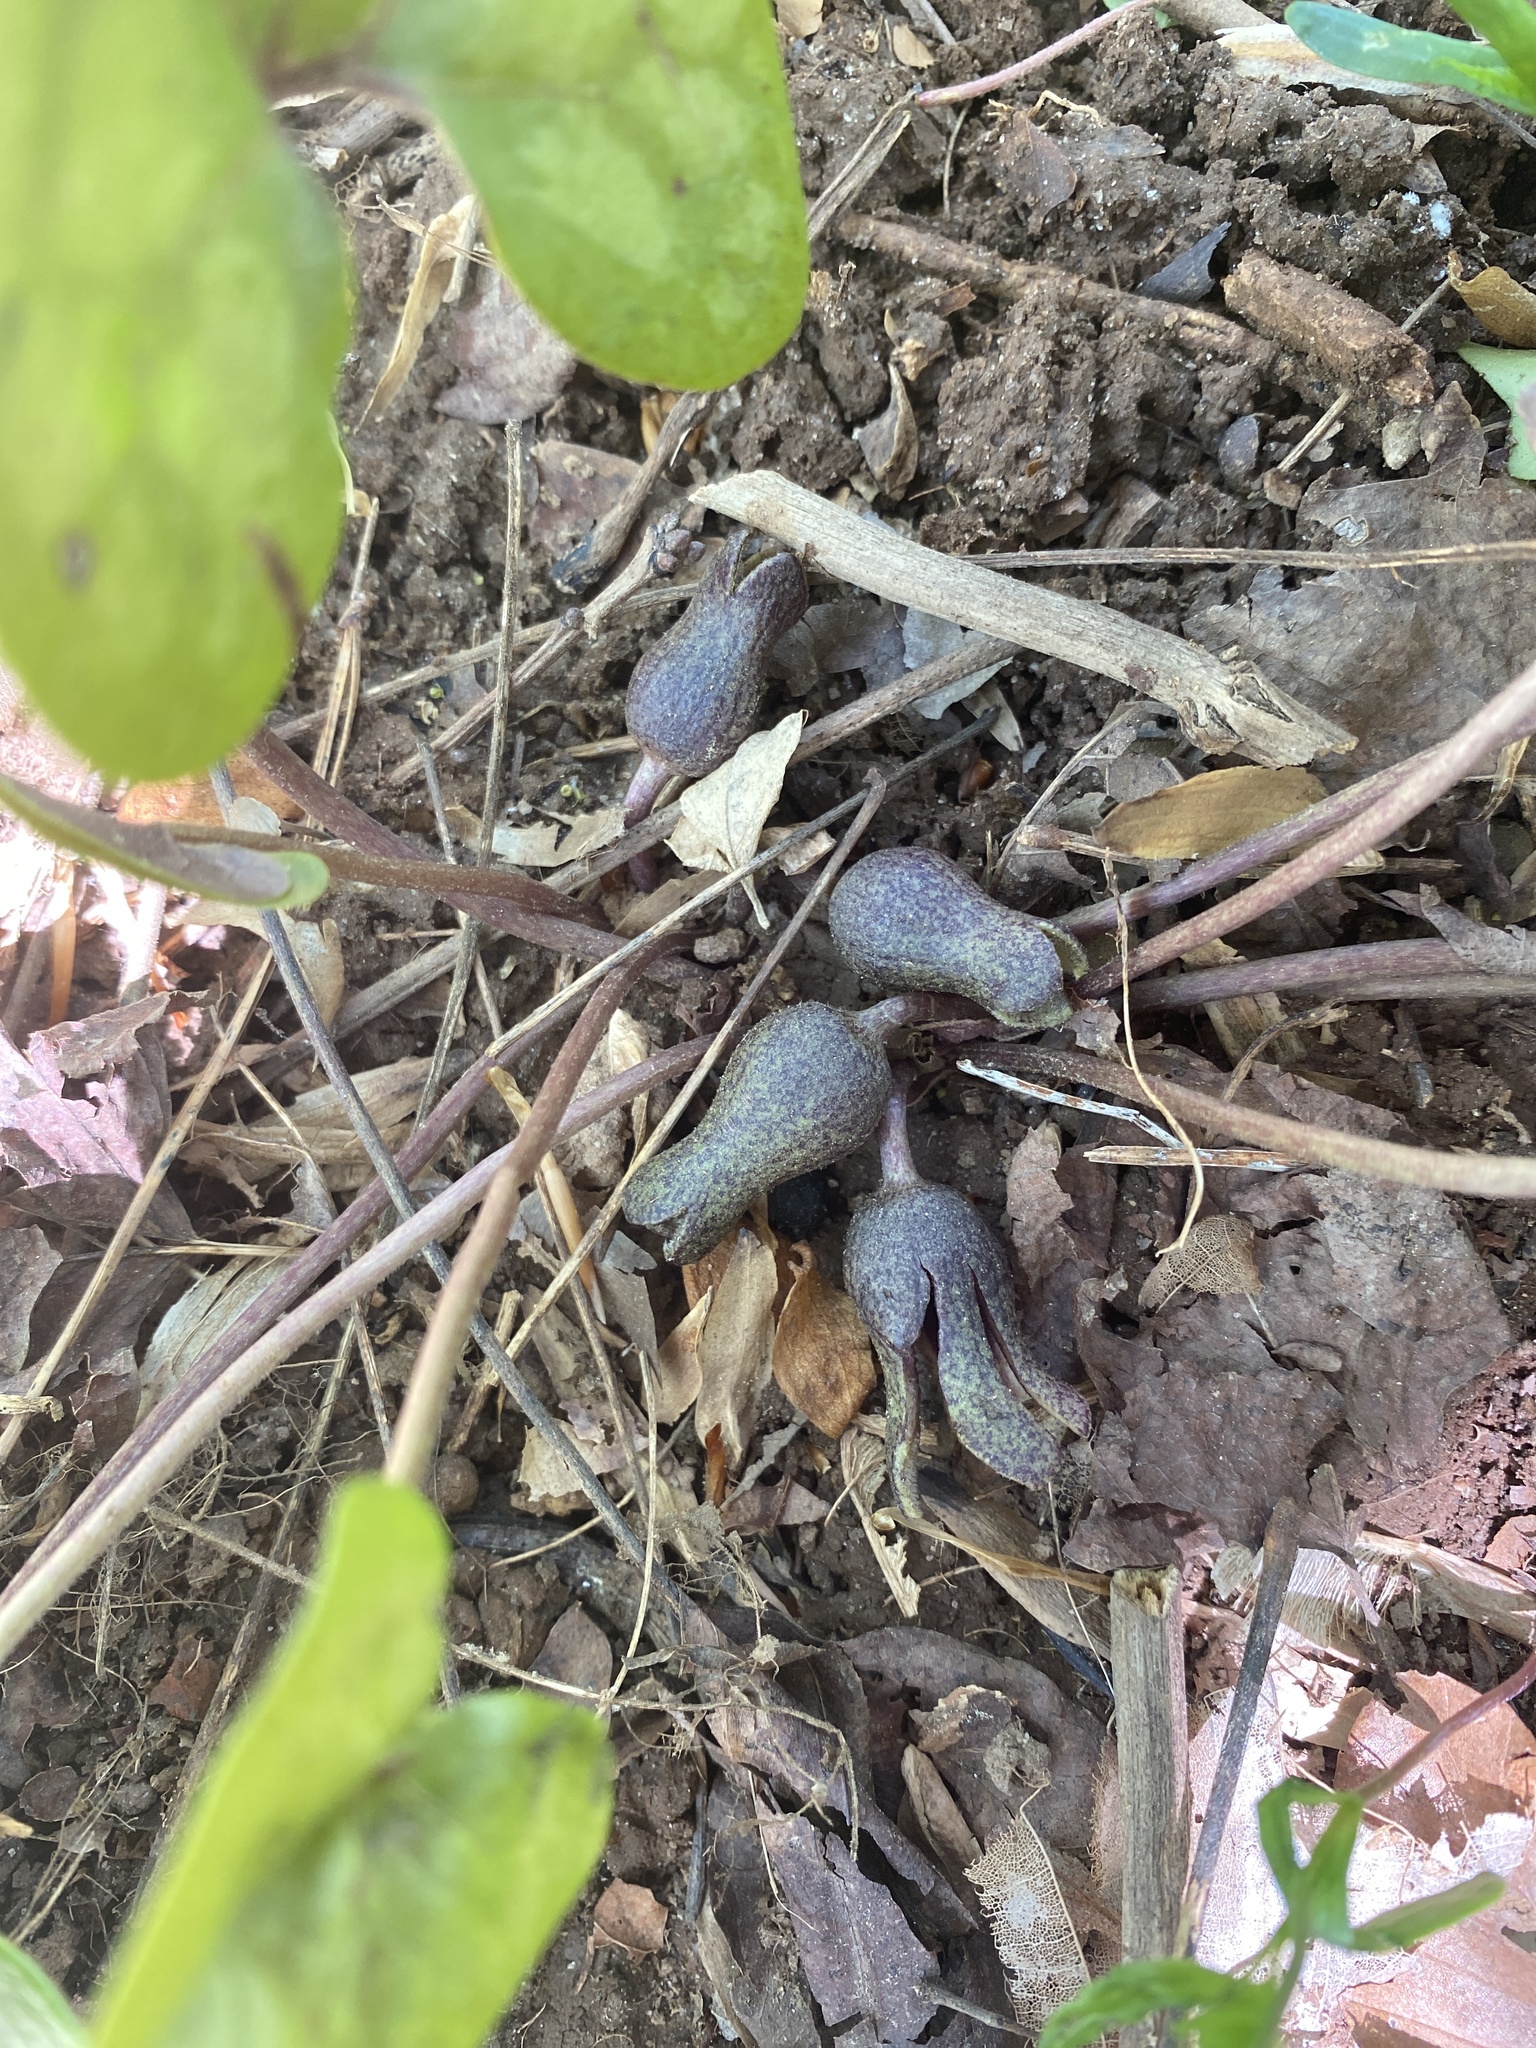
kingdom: Plantae
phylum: Tracheophyta
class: Magnoliopsida
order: Piperales
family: Aristolochiaceae
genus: Hexastylis
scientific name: Hexastylis arifolia
